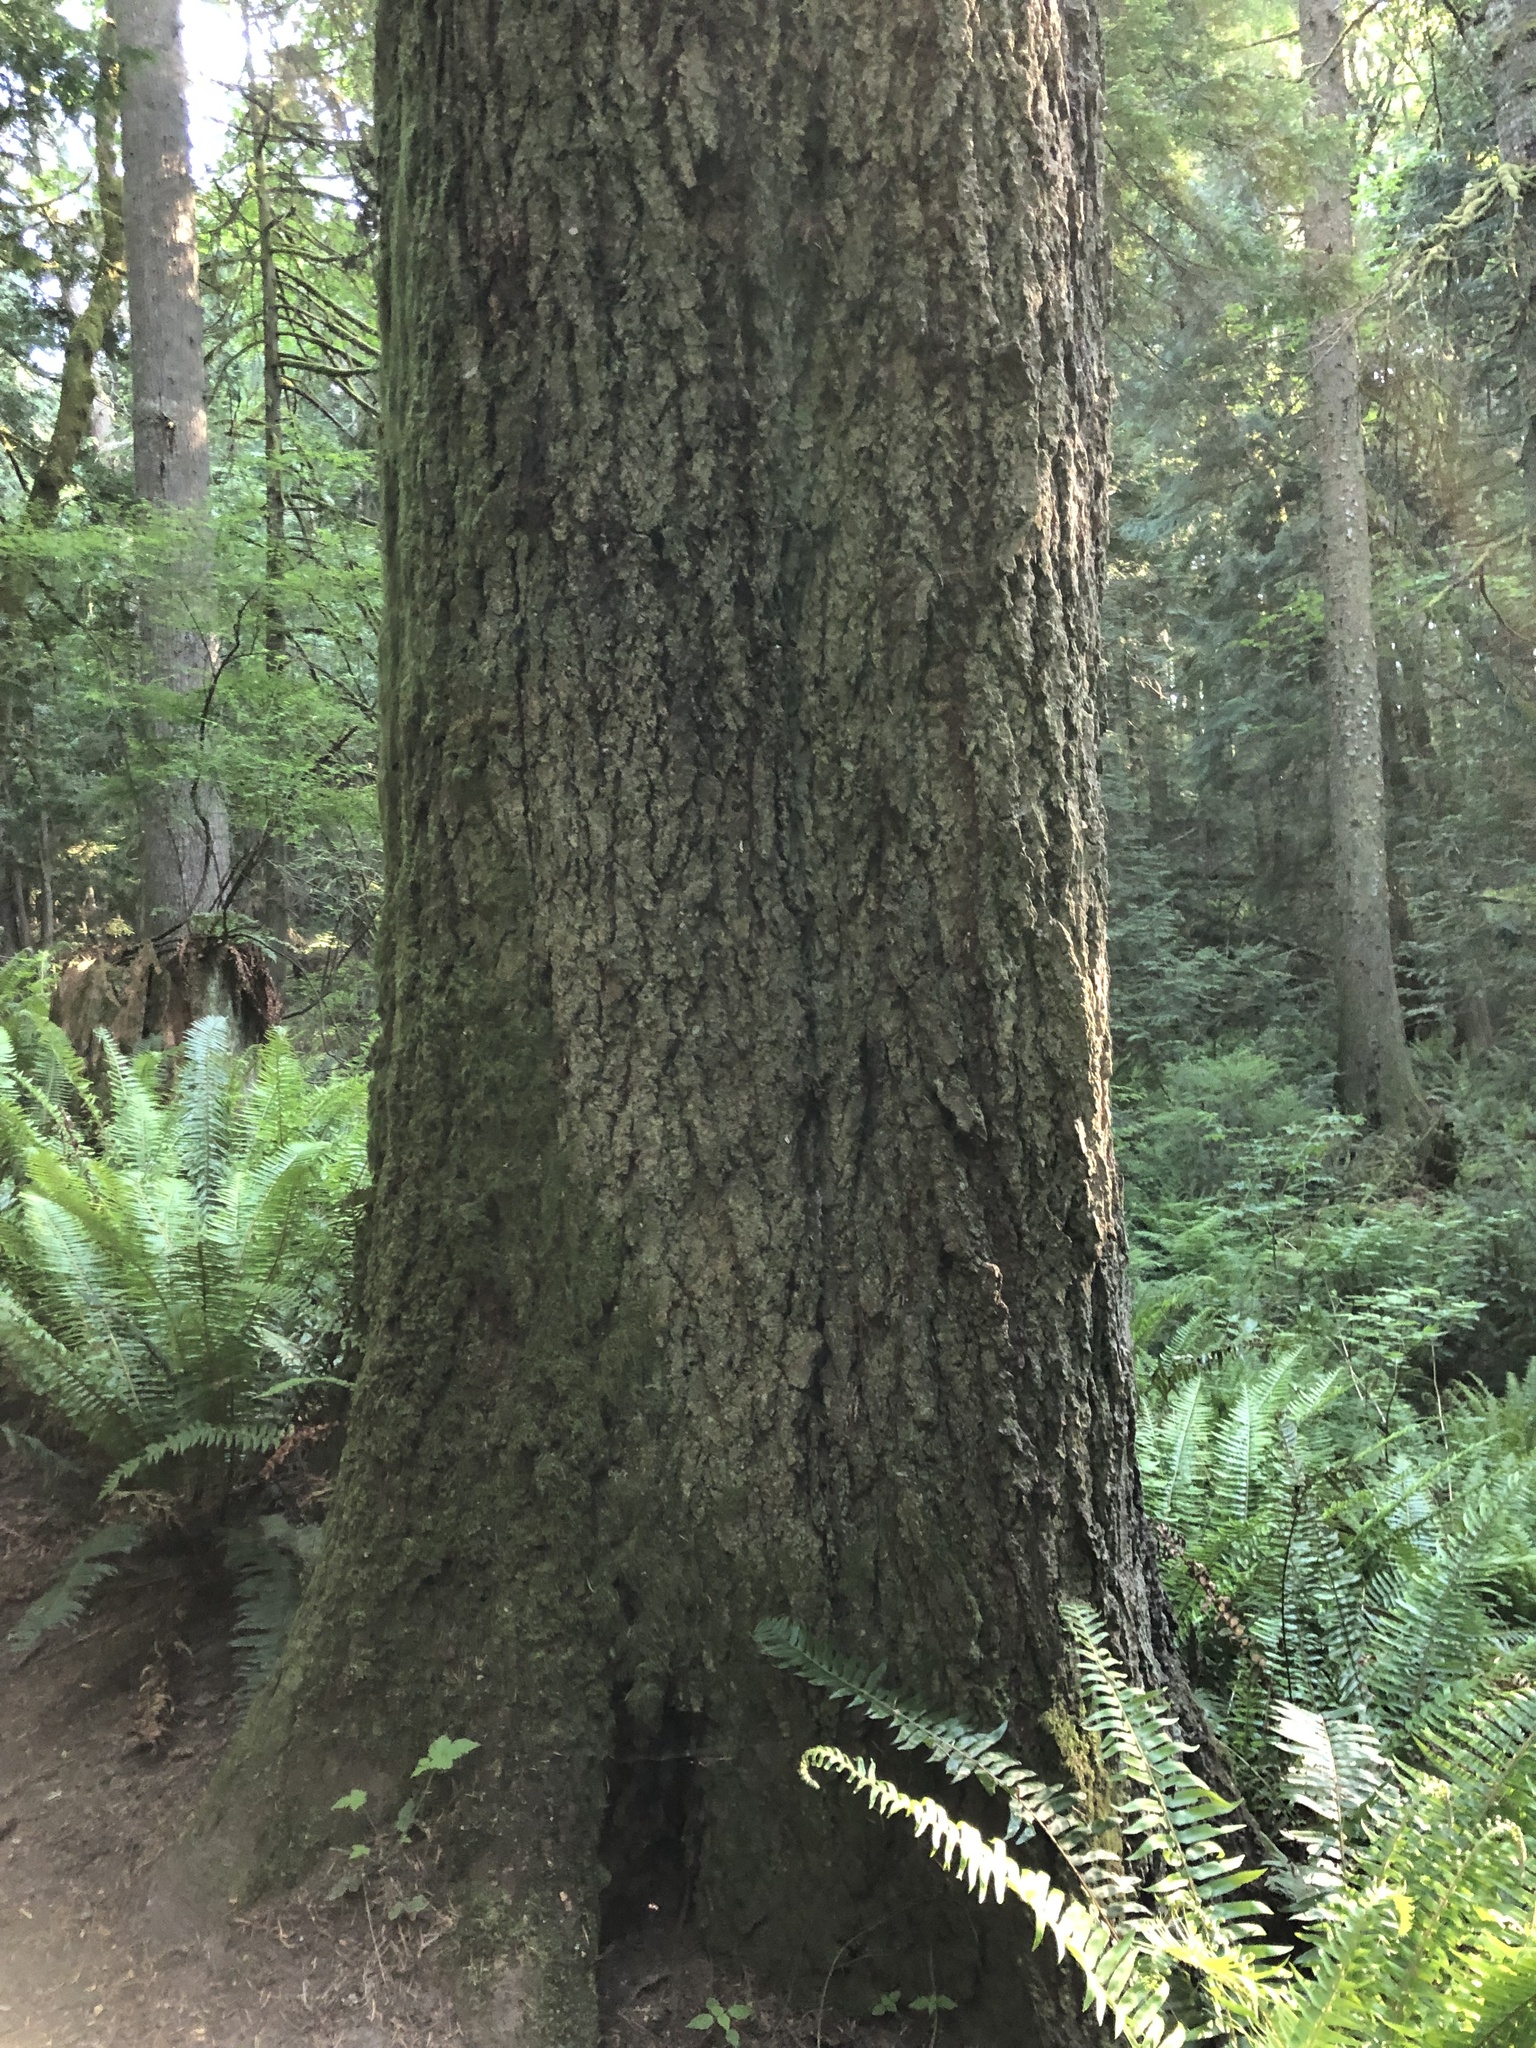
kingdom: Plantae
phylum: Tracheophyta
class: Pinopsida
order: Pinales
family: Pinaceae
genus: Abies
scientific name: Abies grandis
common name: Giant fir
